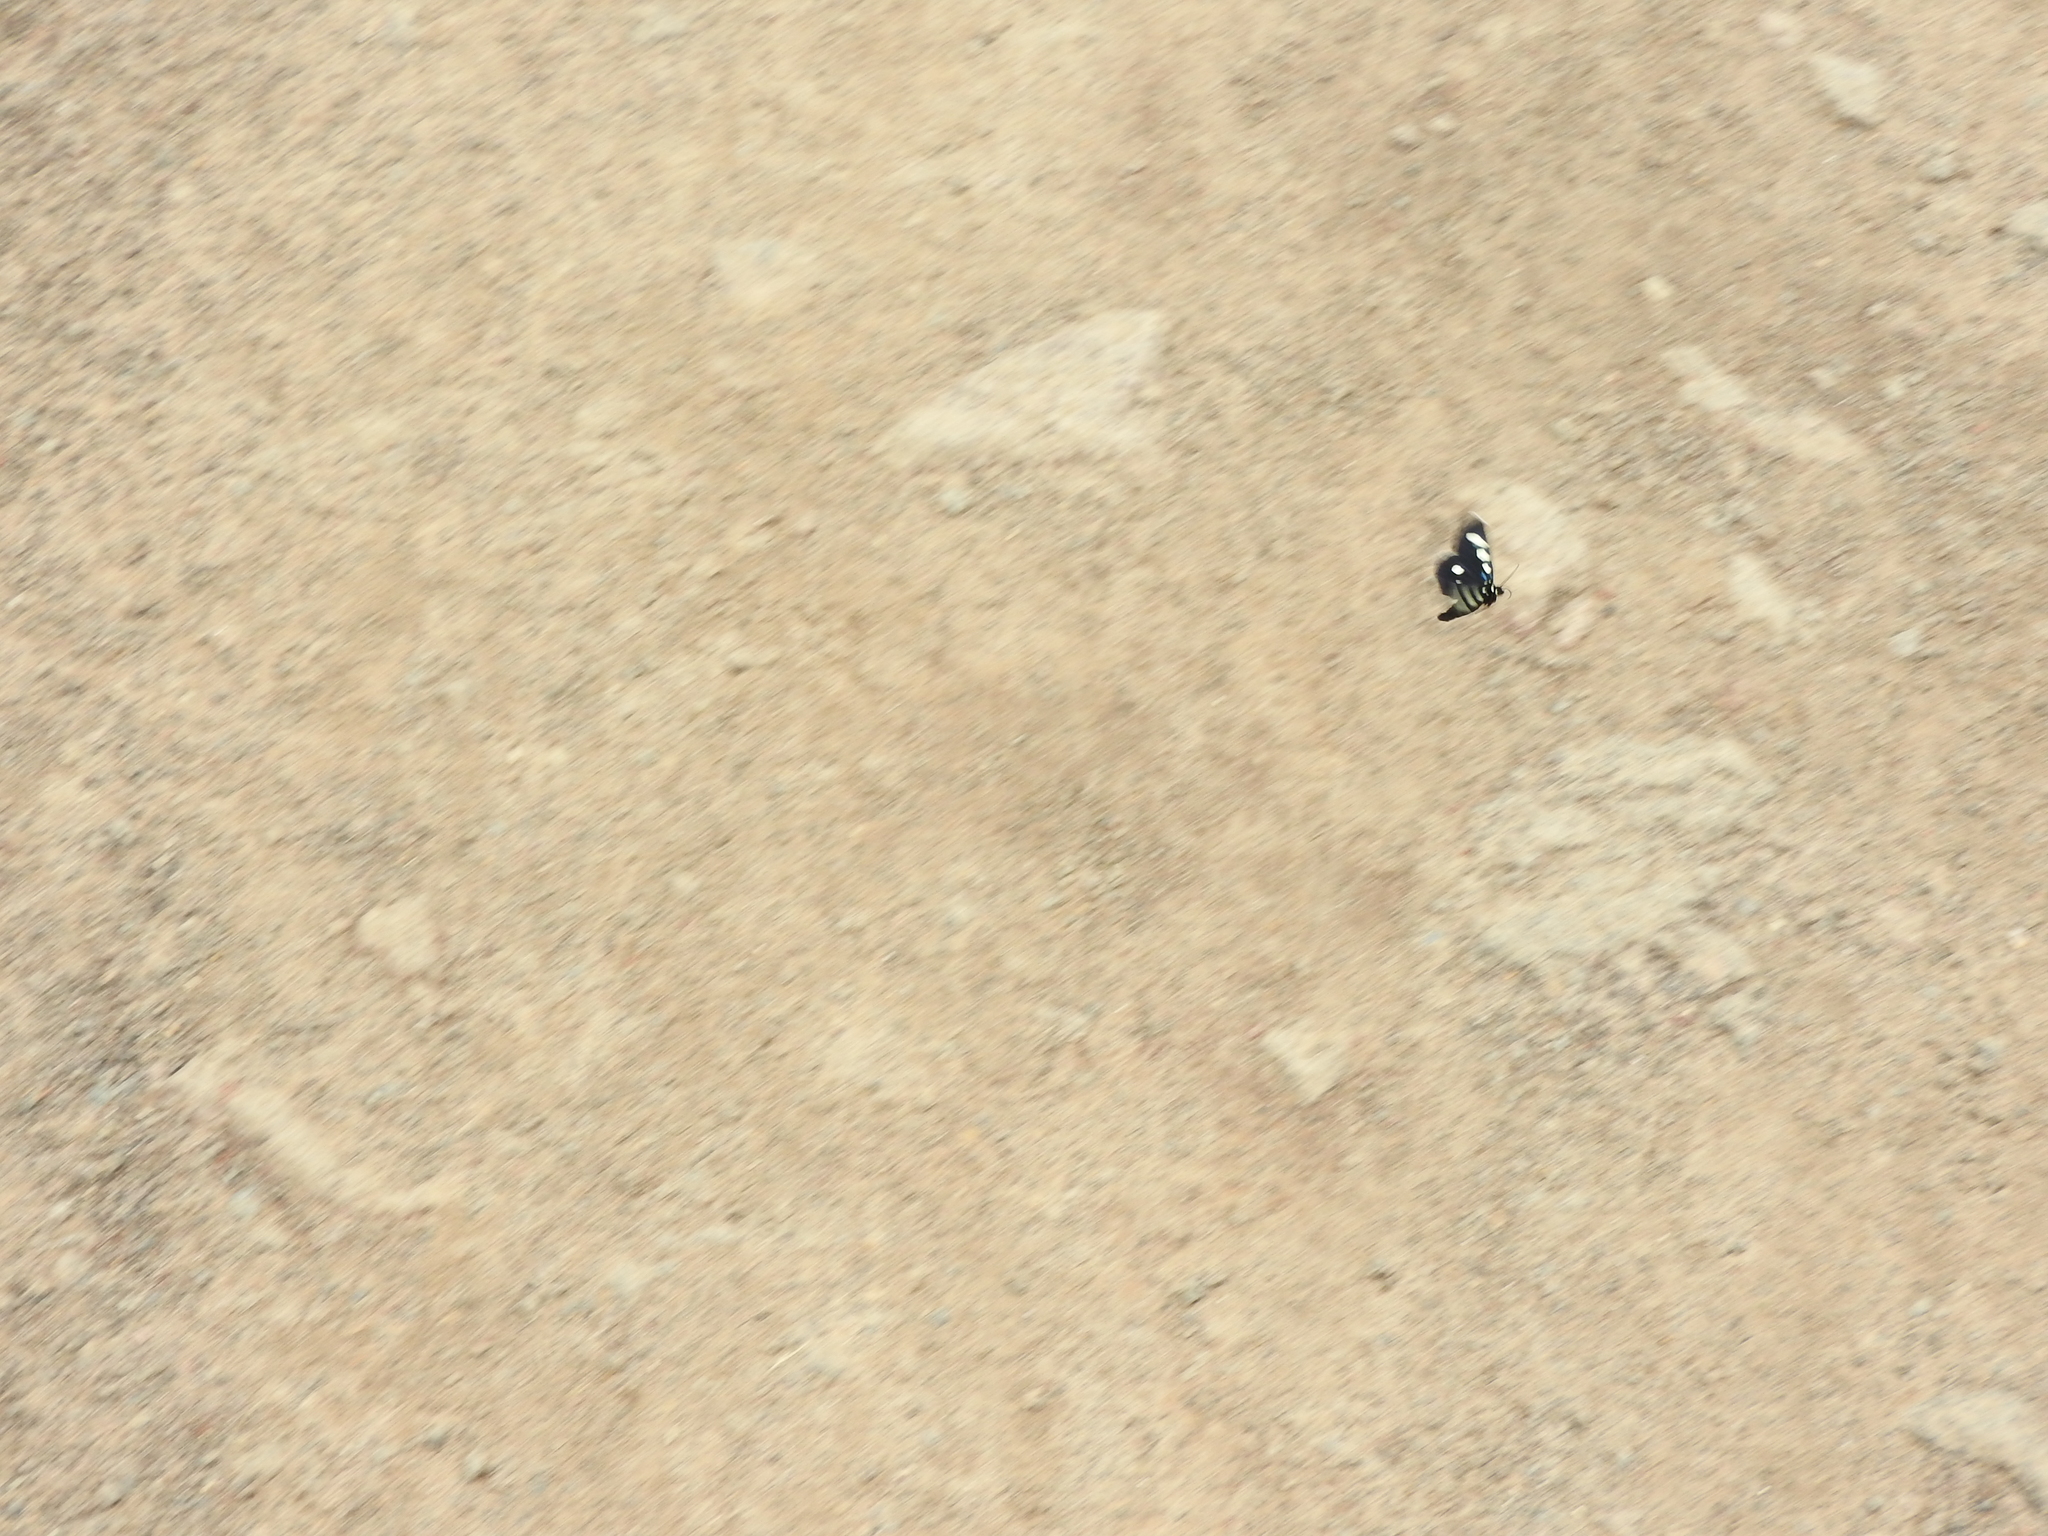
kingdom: Animalia
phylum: Arthropoda
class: Insecta
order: Lepidoptera
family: Noctuidae
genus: Alypiodes
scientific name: Alypiodes bimaculata
